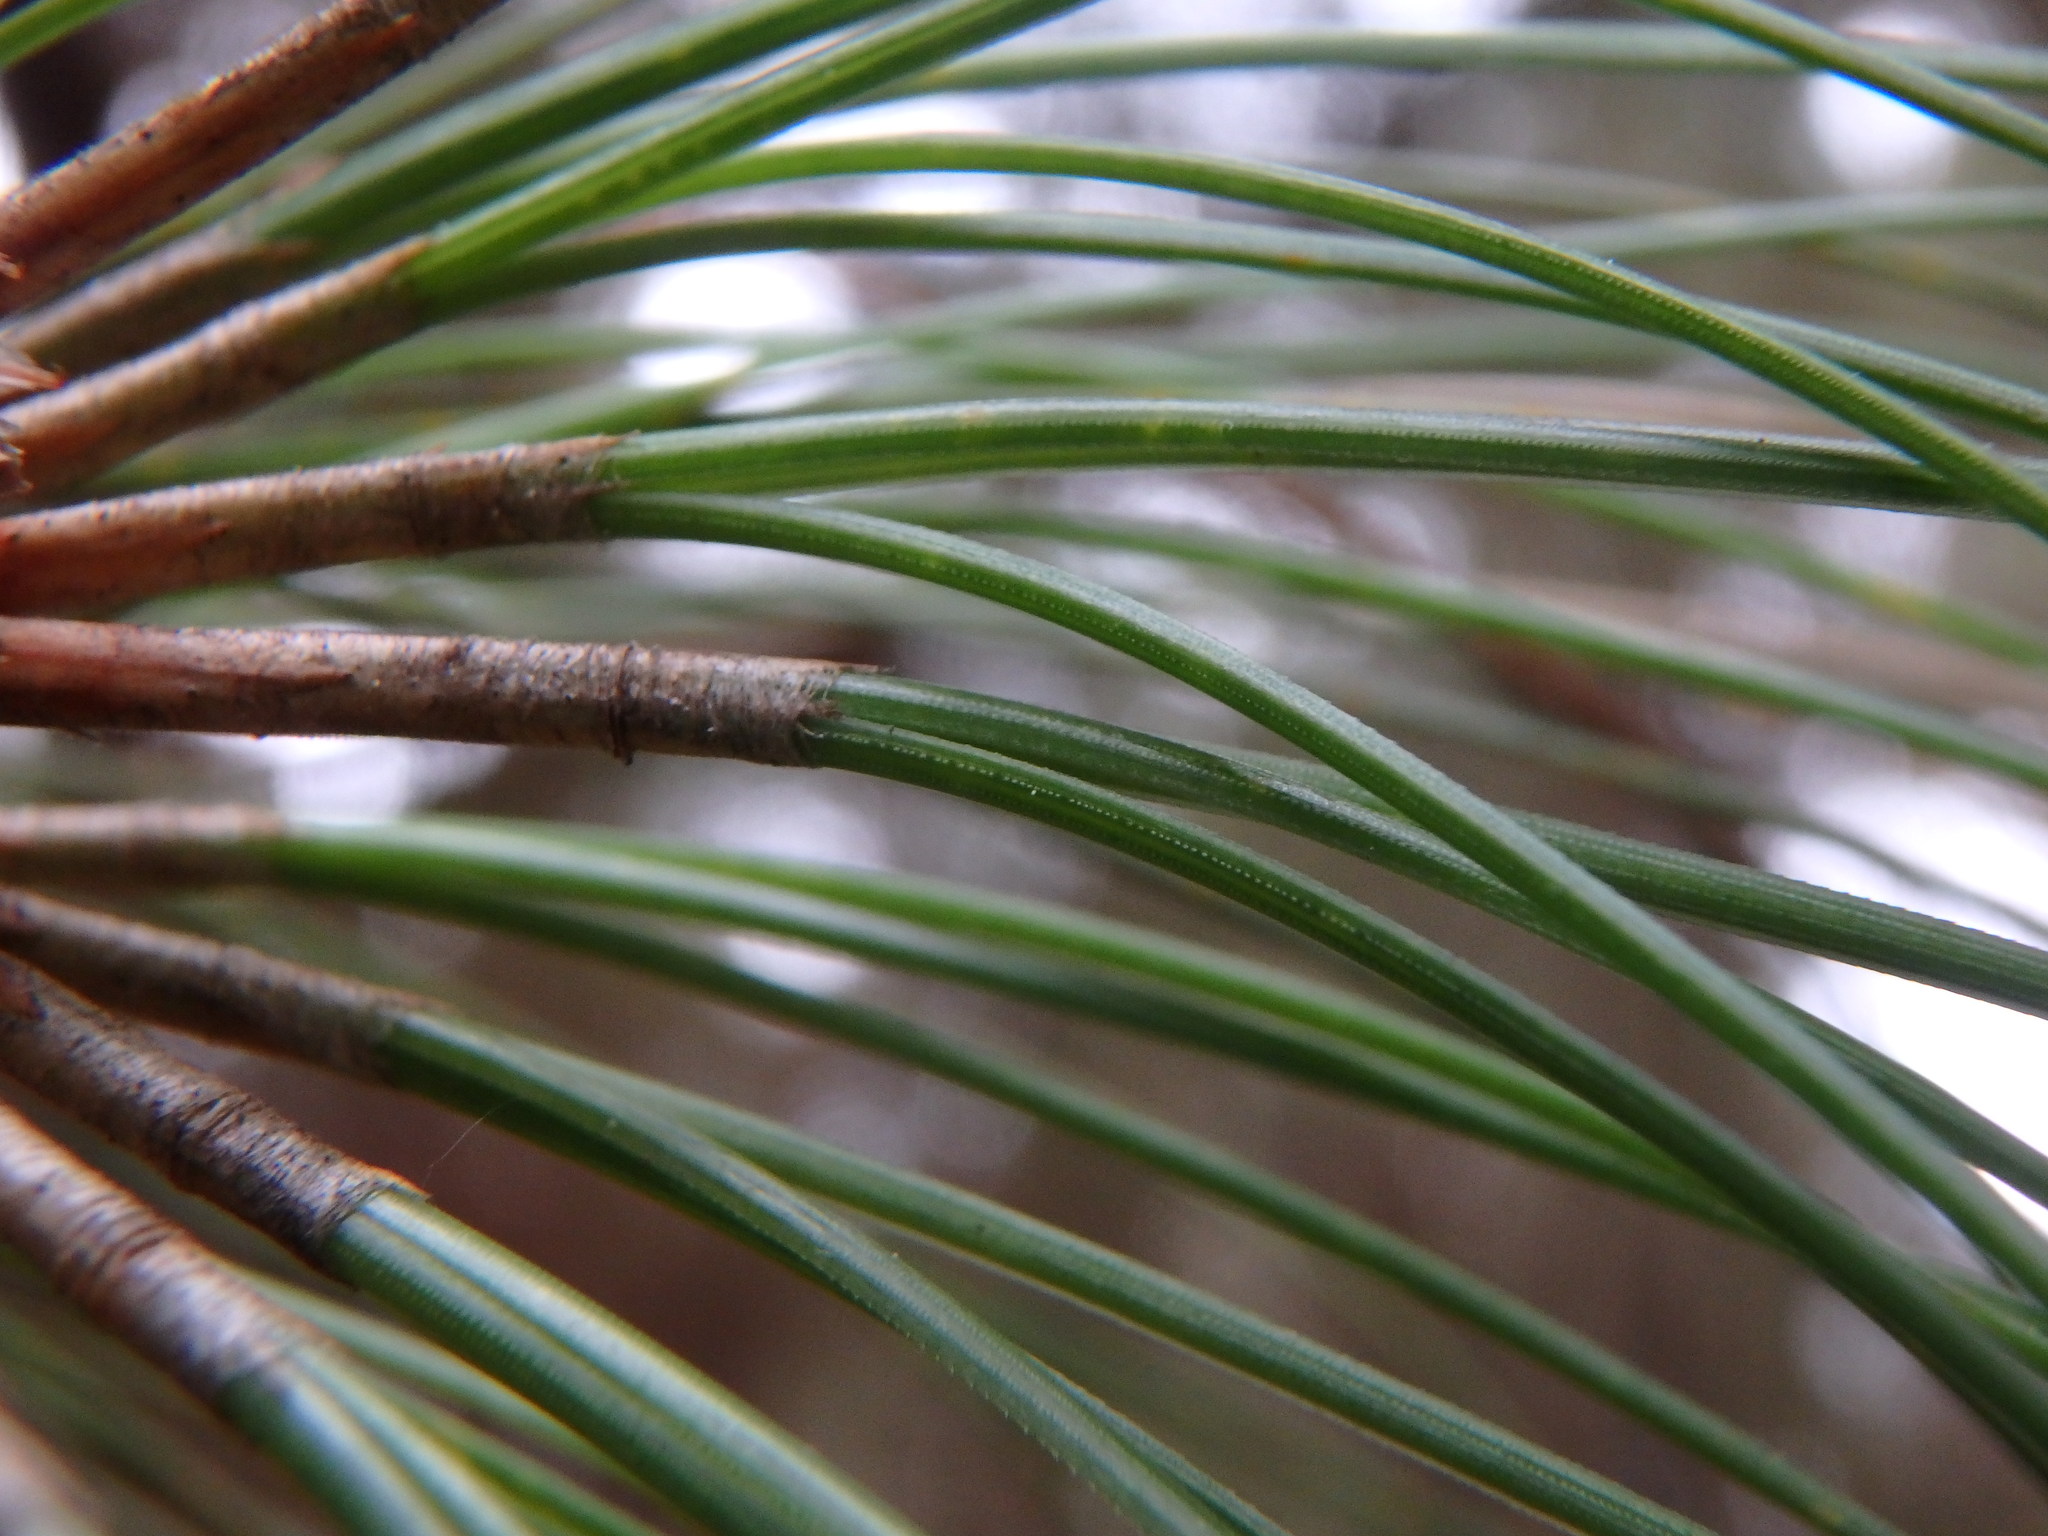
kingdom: Plantae
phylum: Tracheophyta
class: Pinopsida
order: Pinales
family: Pinaceae
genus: Pinus
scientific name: Pinus canariensis
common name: Canary islands pine
